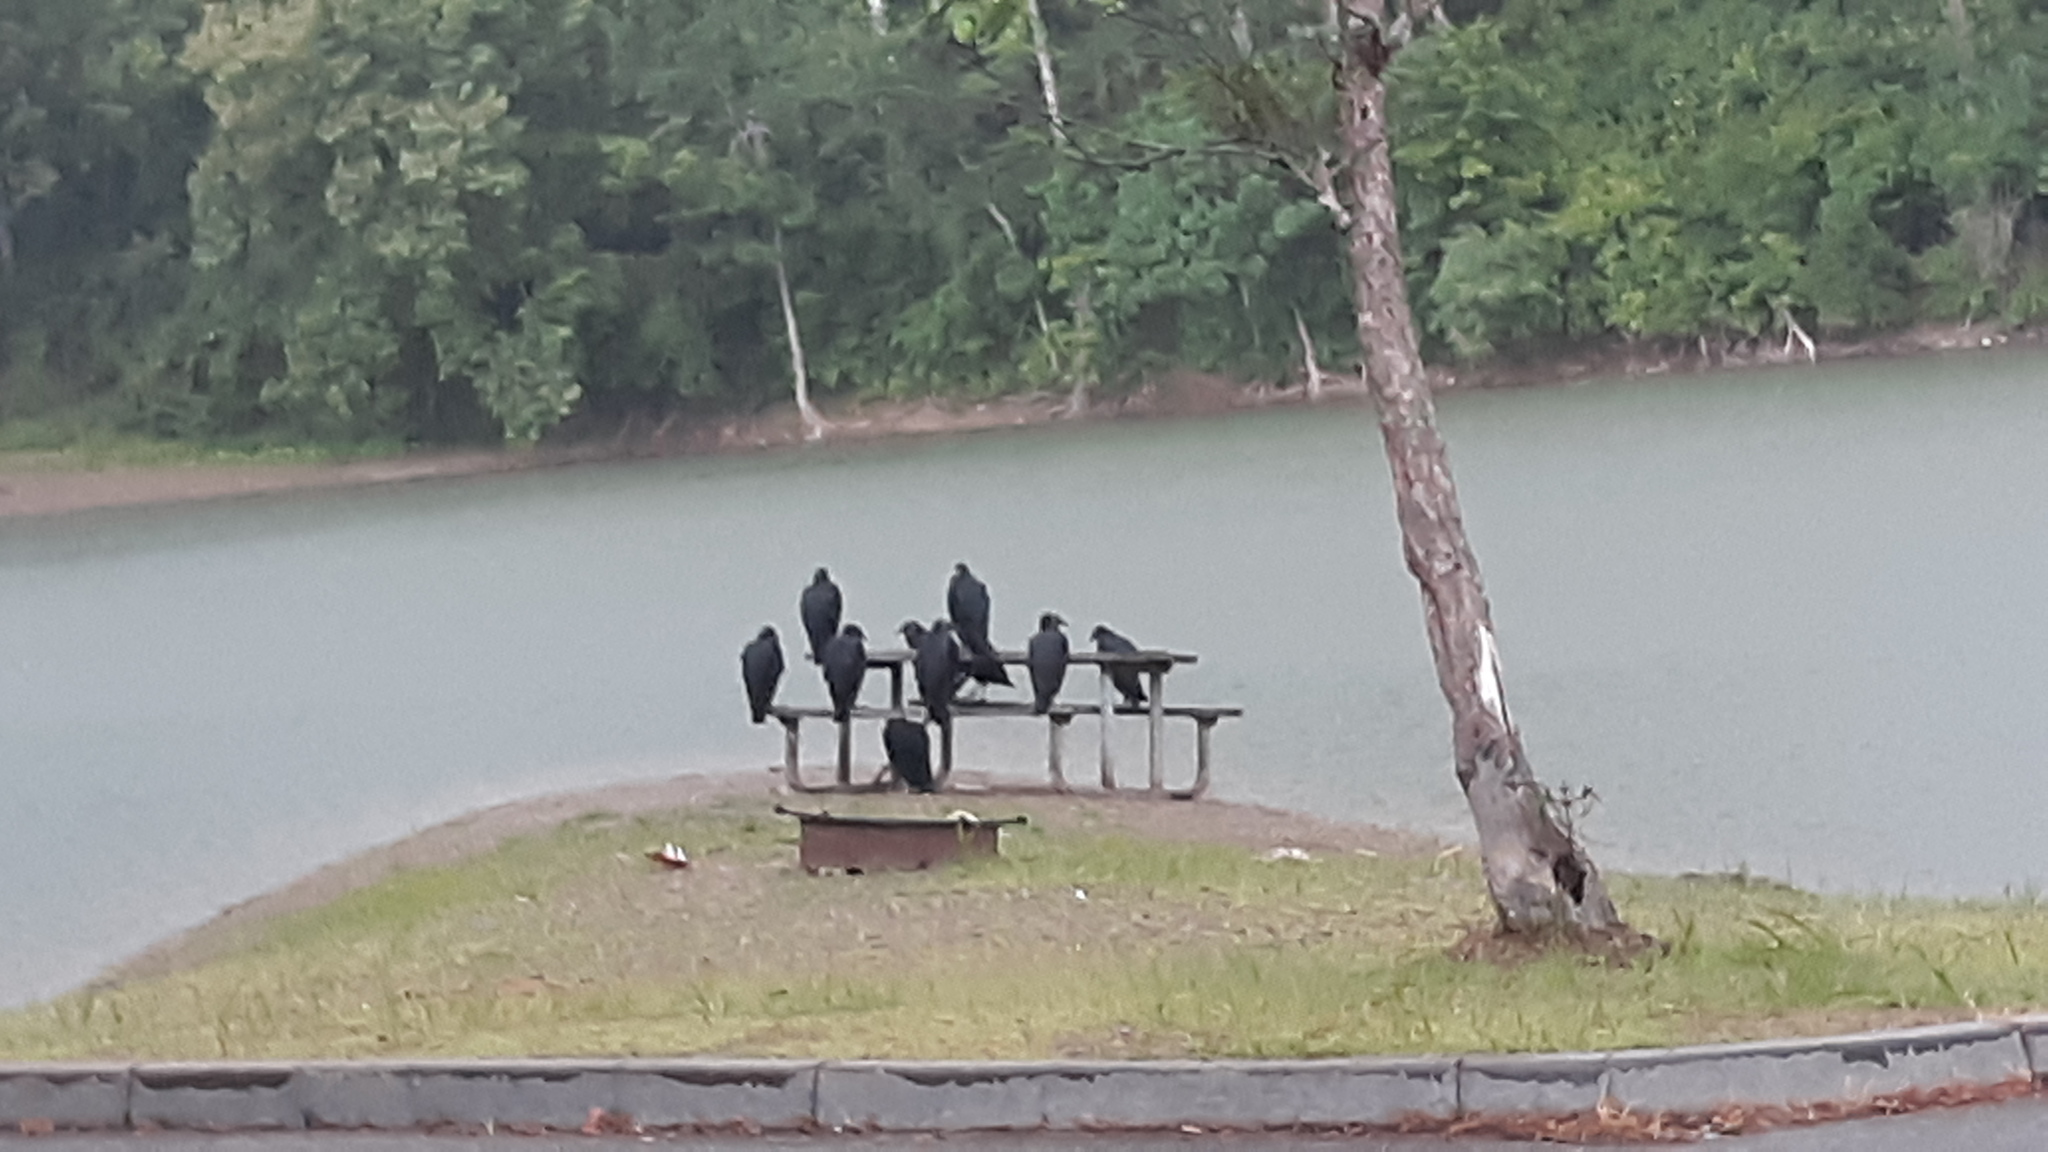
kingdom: Animalia
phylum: Chordata
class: Aves
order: Accipitriformes
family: Cathartidae
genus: Coragyps
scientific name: Coragyps atratus
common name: Black vulture
